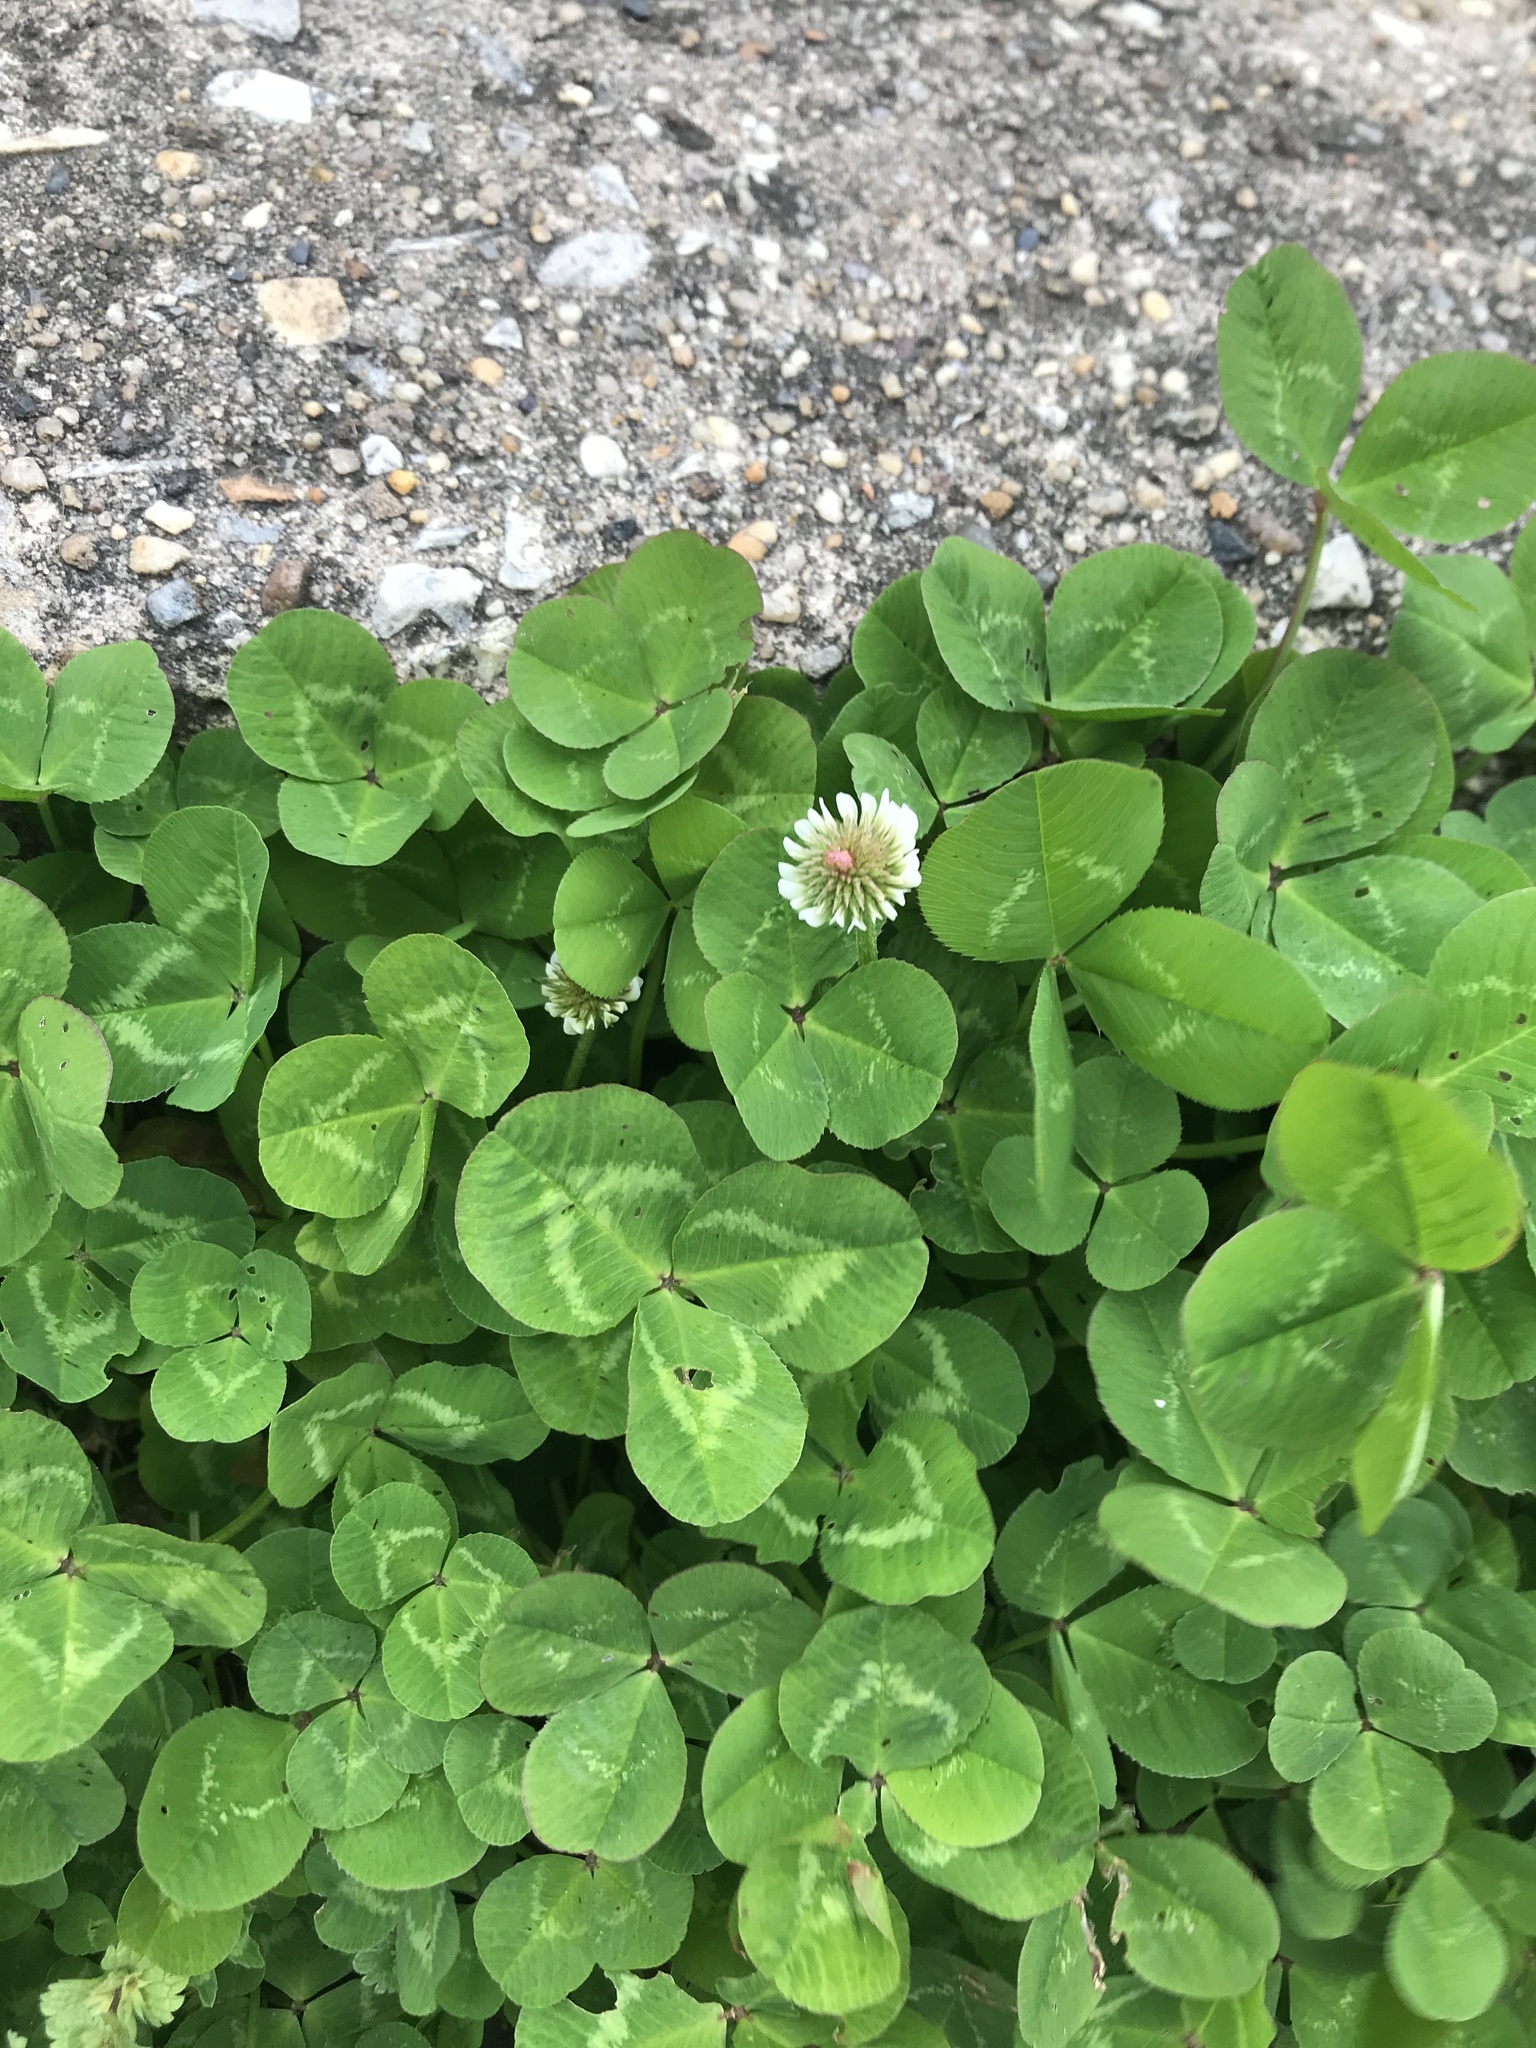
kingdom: Plantae
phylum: Tracheophyta
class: Magnoliopsida
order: Fabales
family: Fabaceae
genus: Trifolium
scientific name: Trifolium repens
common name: White clover
